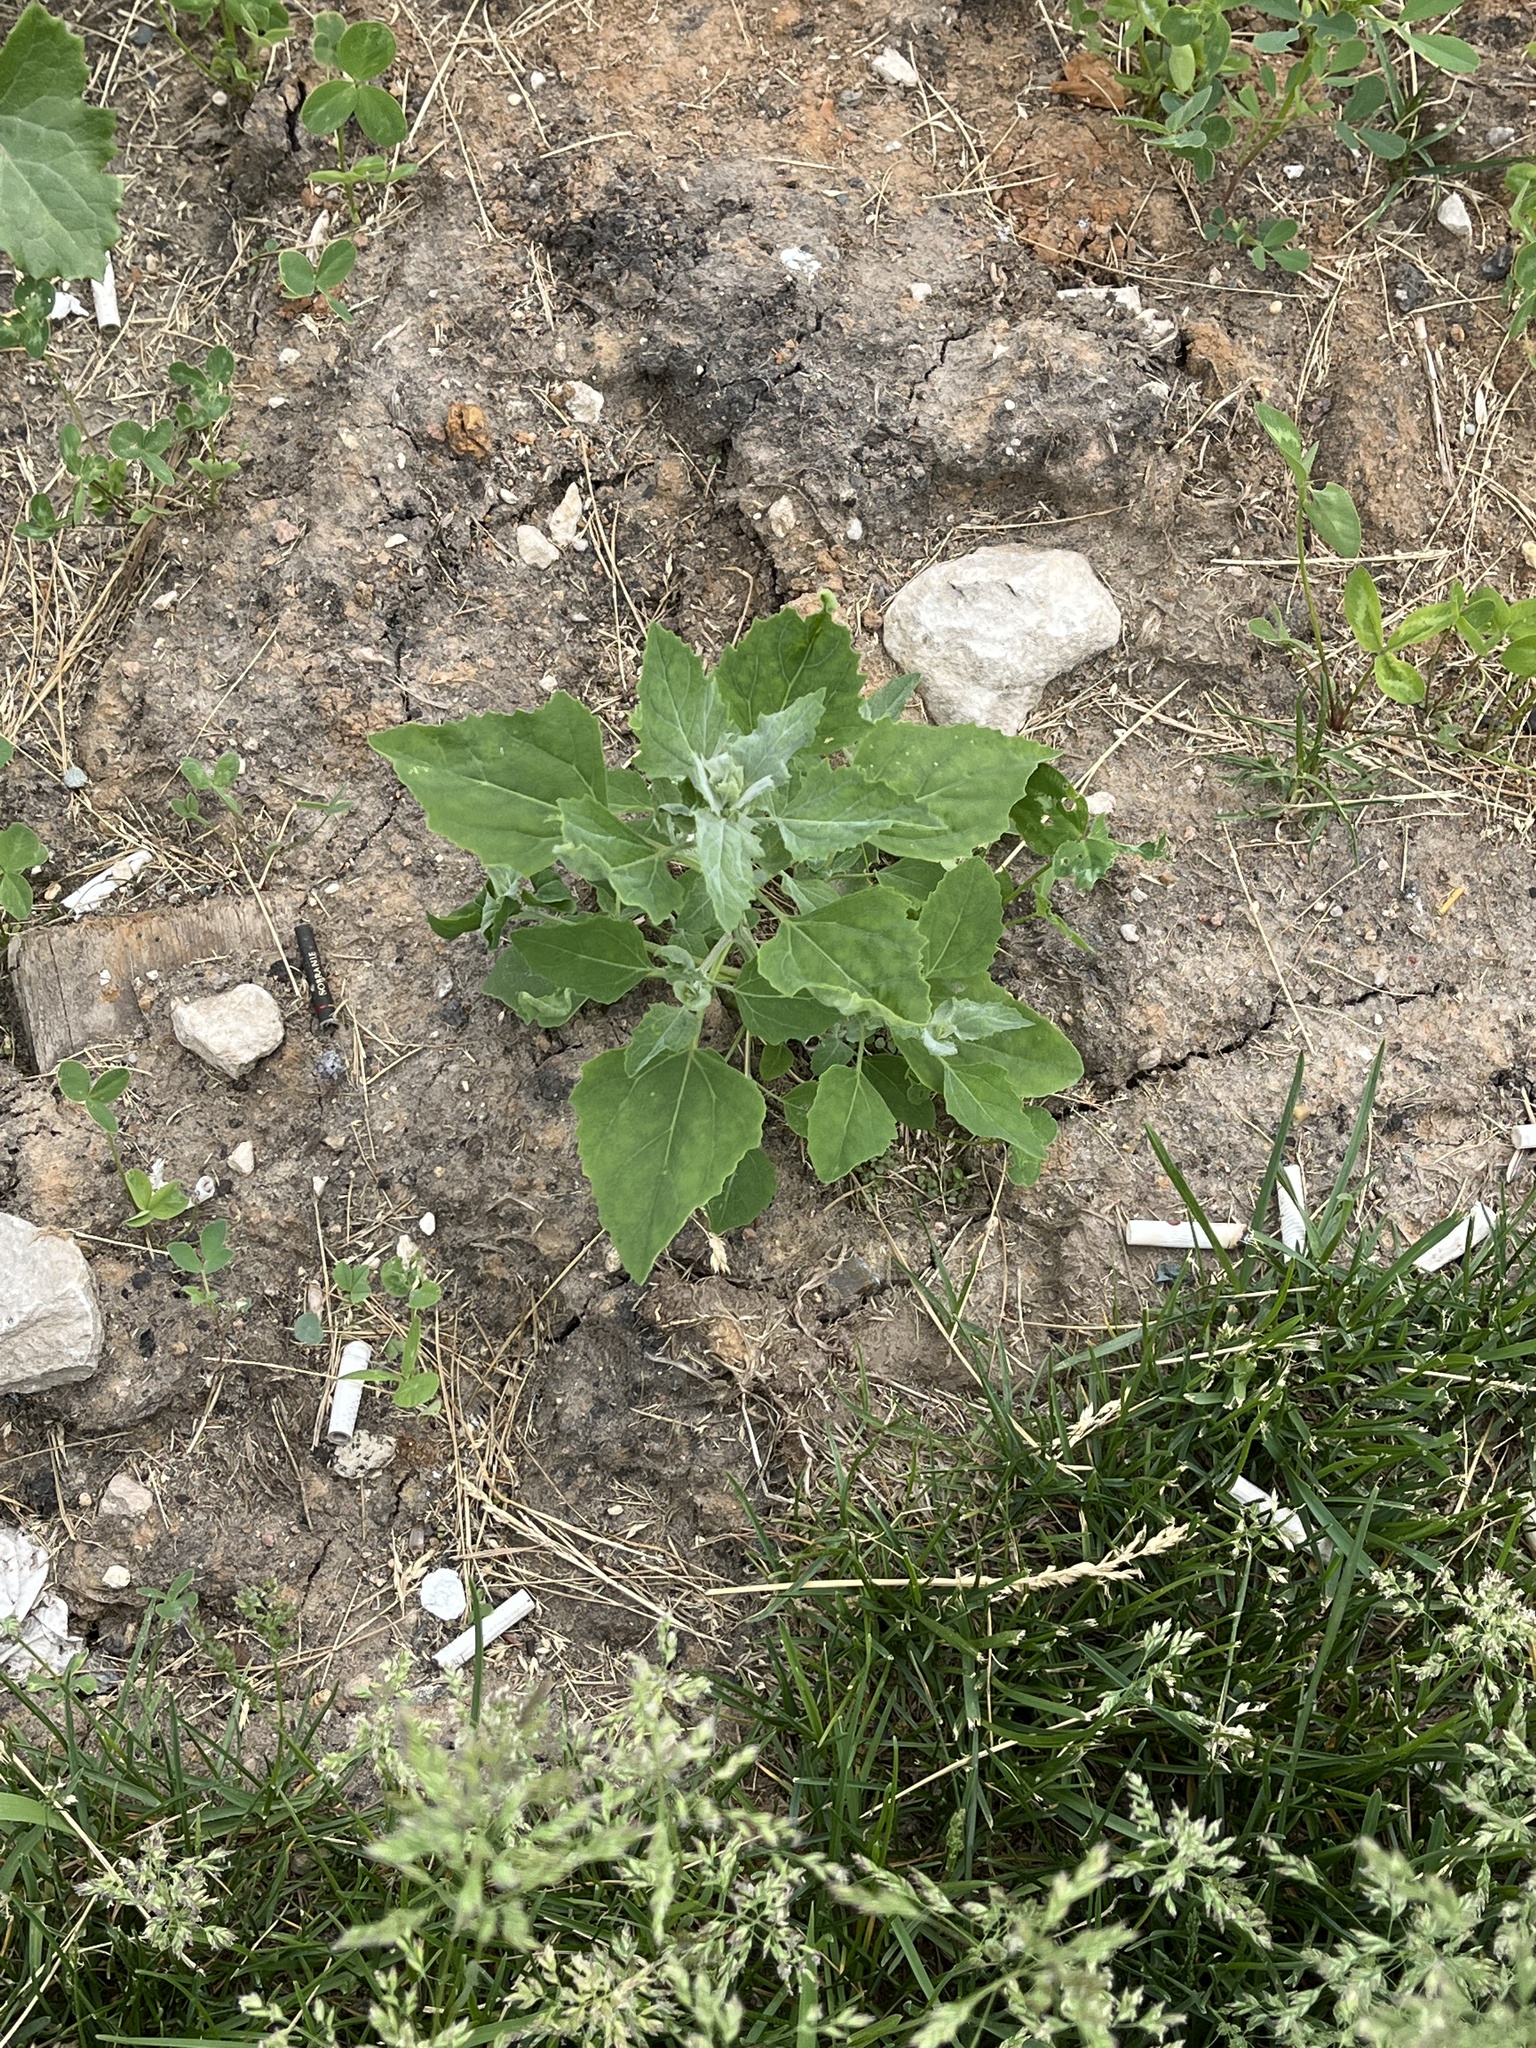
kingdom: Plantae
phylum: Tracheophyta
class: Magnoliopsida
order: Caryophyllales
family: Amaranthaceae
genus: Chenopodium
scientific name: Chenopodium album
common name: Fat-hen
